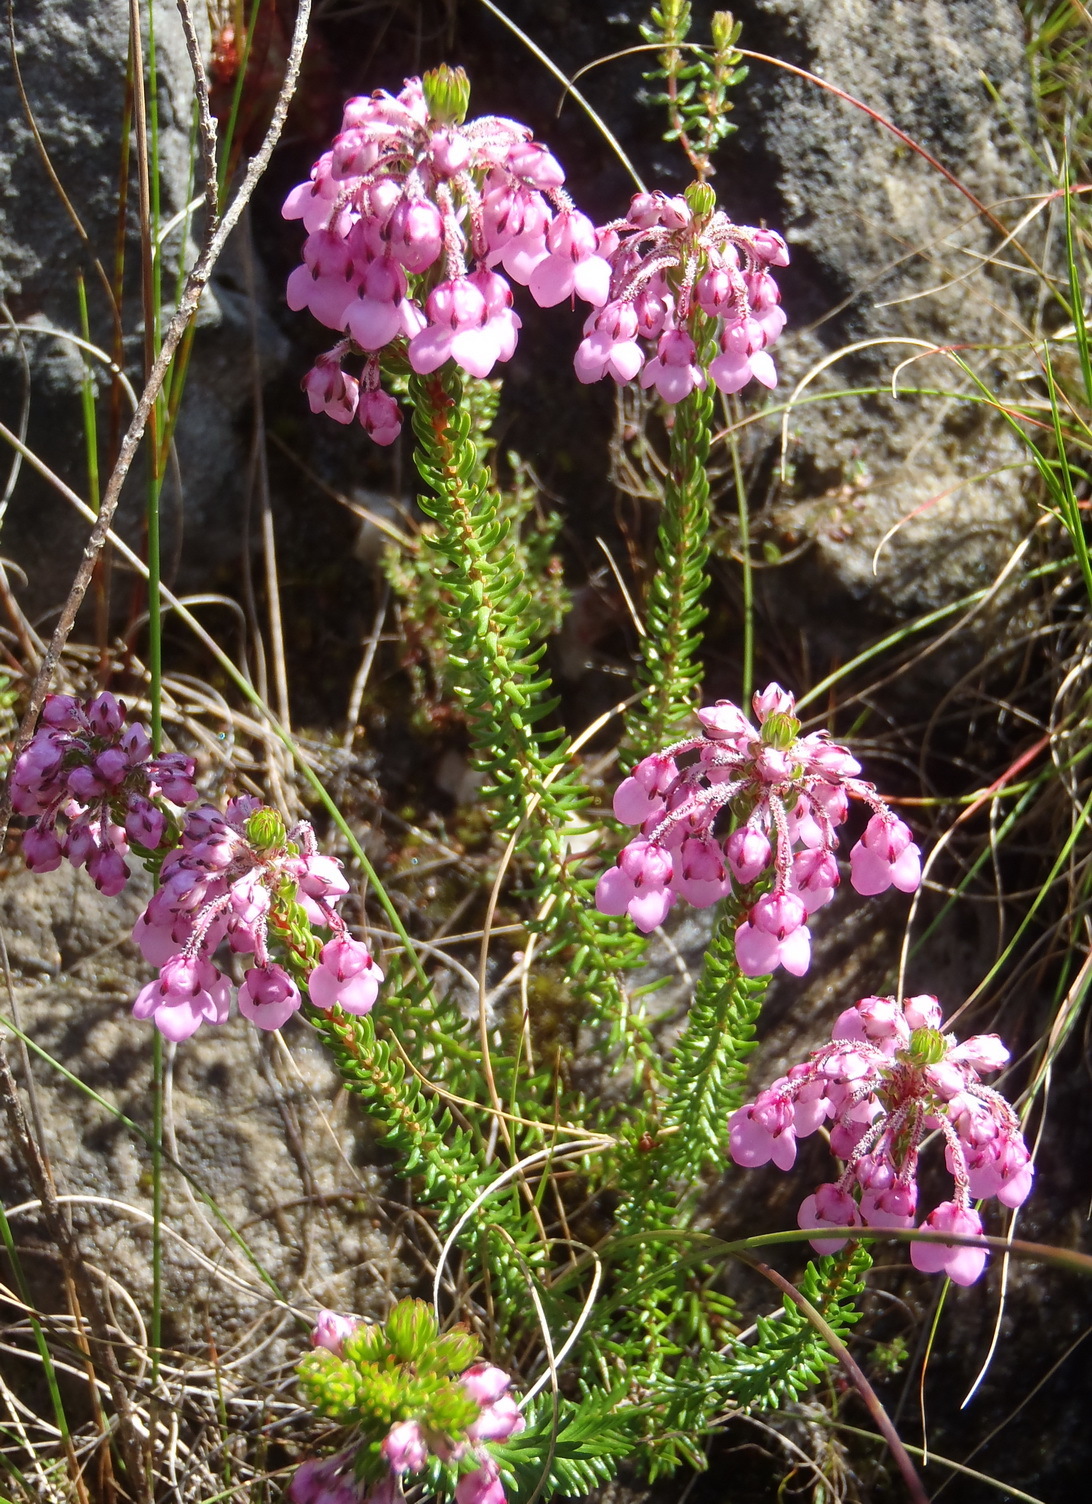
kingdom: Plantae
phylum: Tracheophyta
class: Magnoliopsida
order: Ericales
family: Ericaceae
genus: Erica
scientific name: Erica cubica
